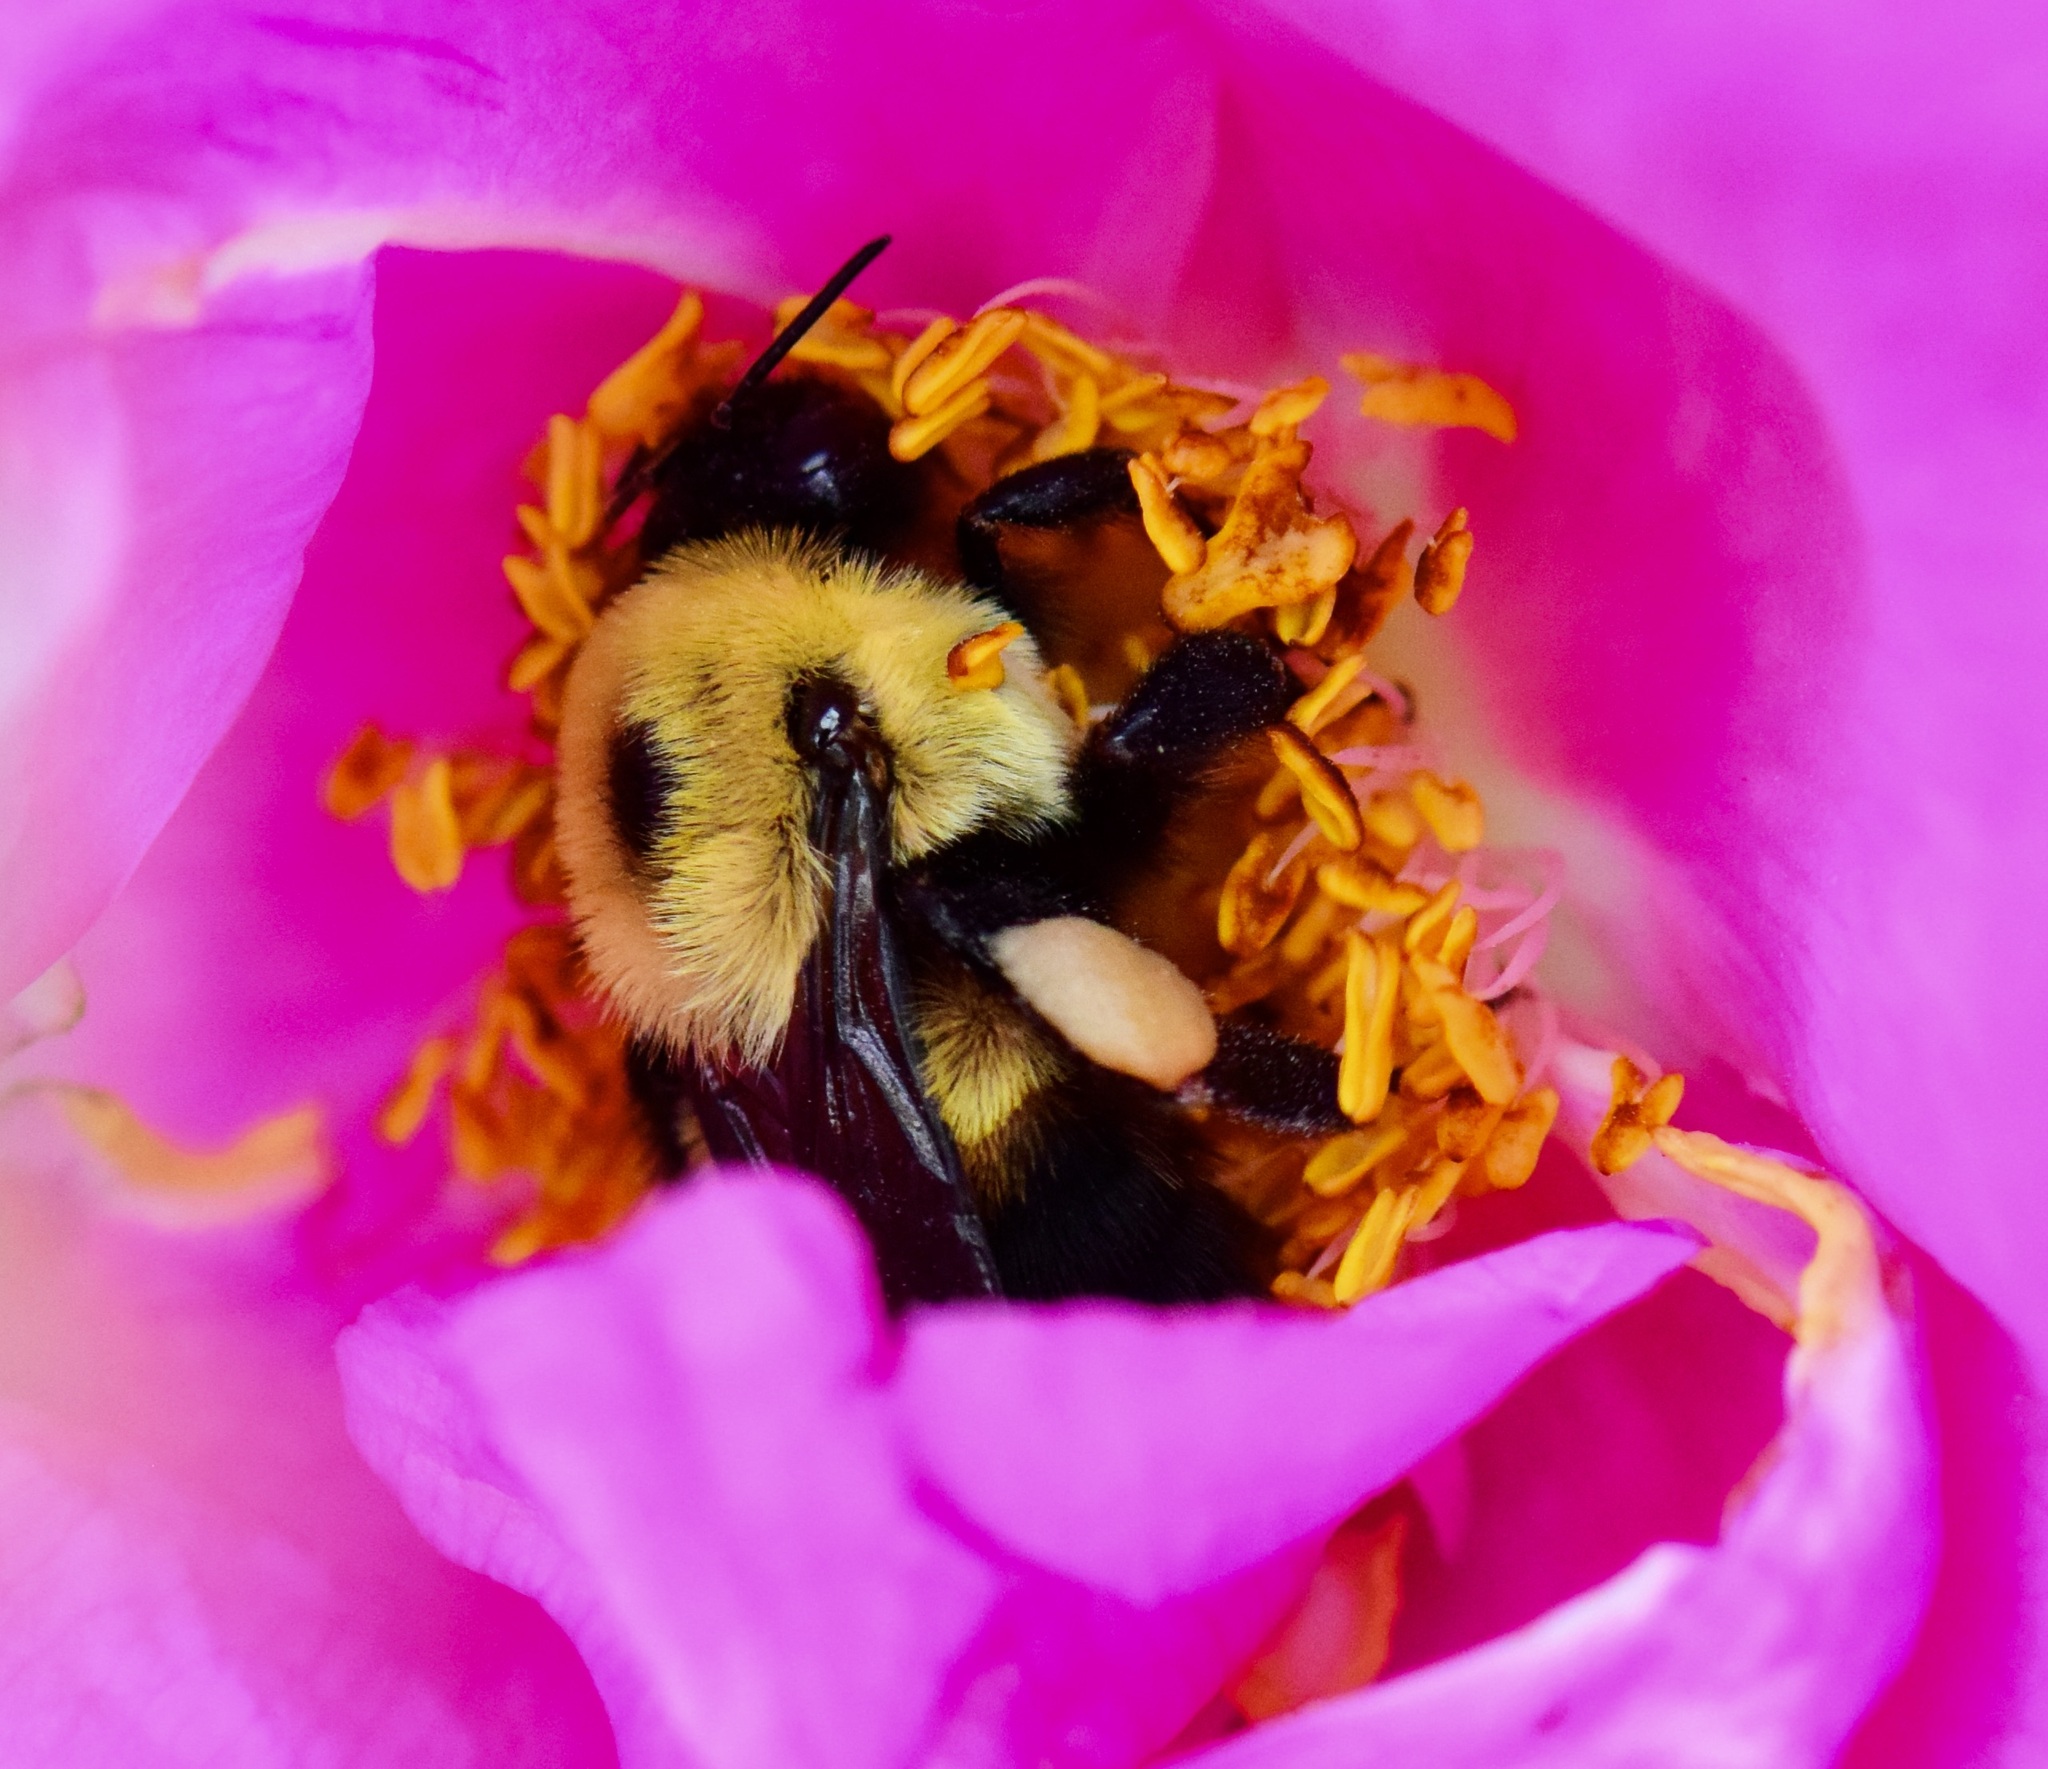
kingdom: Animalia
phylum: Arthropoda
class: Insecta
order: Hymenoptera
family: Apidae
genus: Bombus
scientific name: Bombus griseocollis
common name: Brown-belted bumble bee
